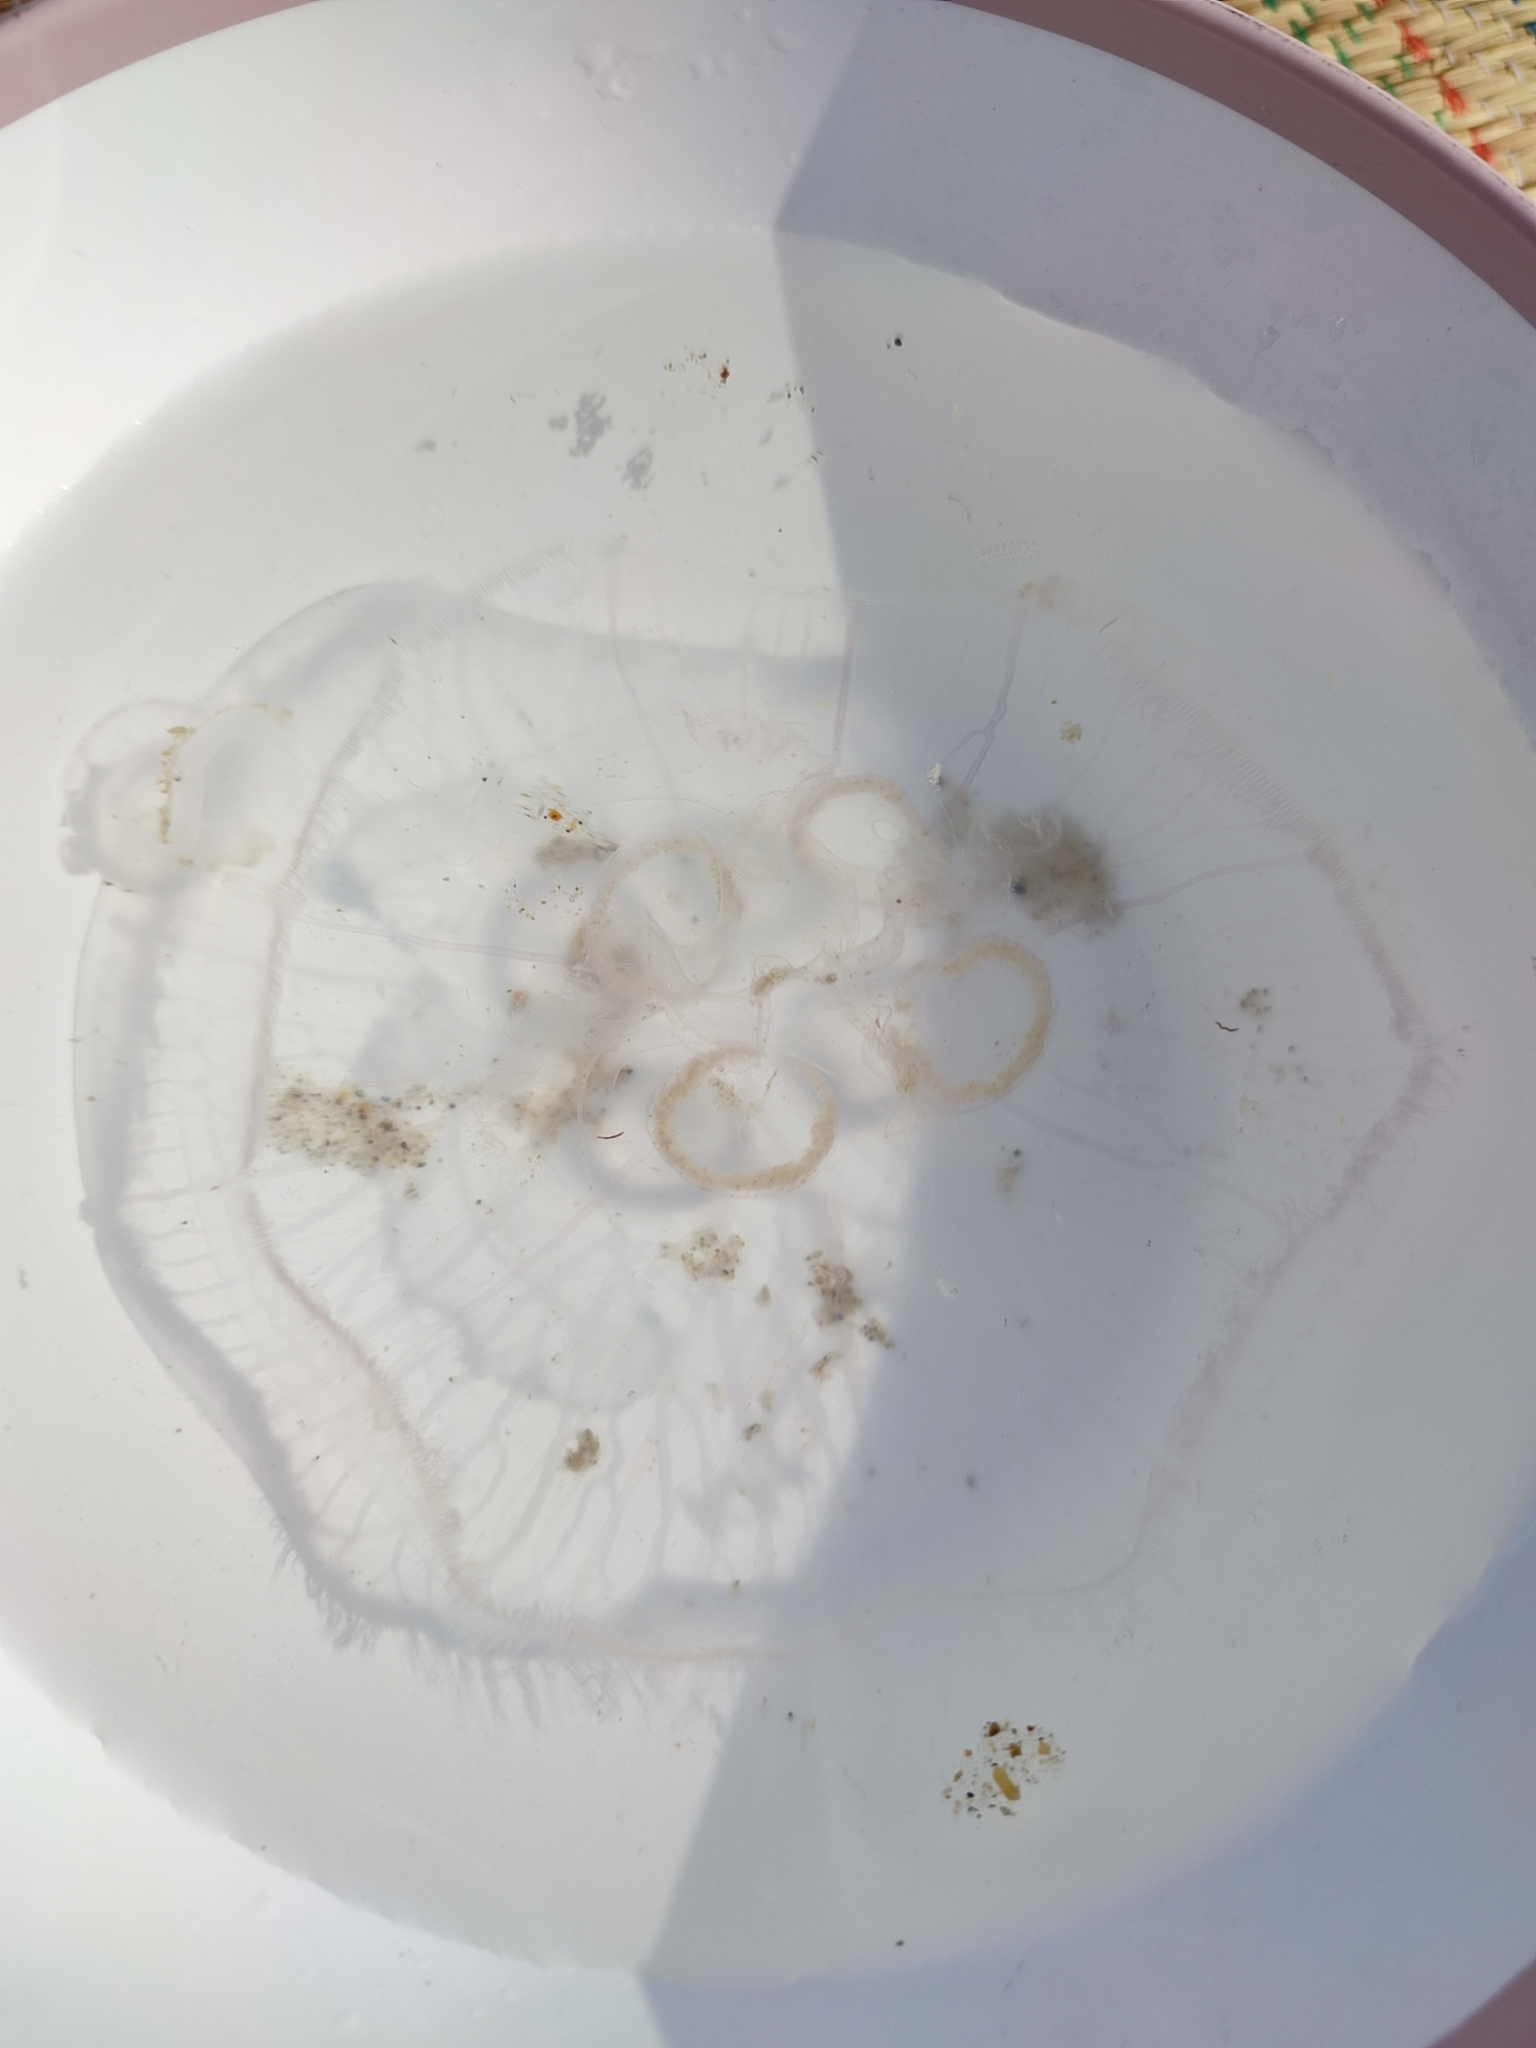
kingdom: Animalia
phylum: Cnidaria
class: Scyphozoa
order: Semaeostomeae
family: Ulmaridae
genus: Aurelia
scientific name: Aurelia aurita
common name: Moon jellyfish
